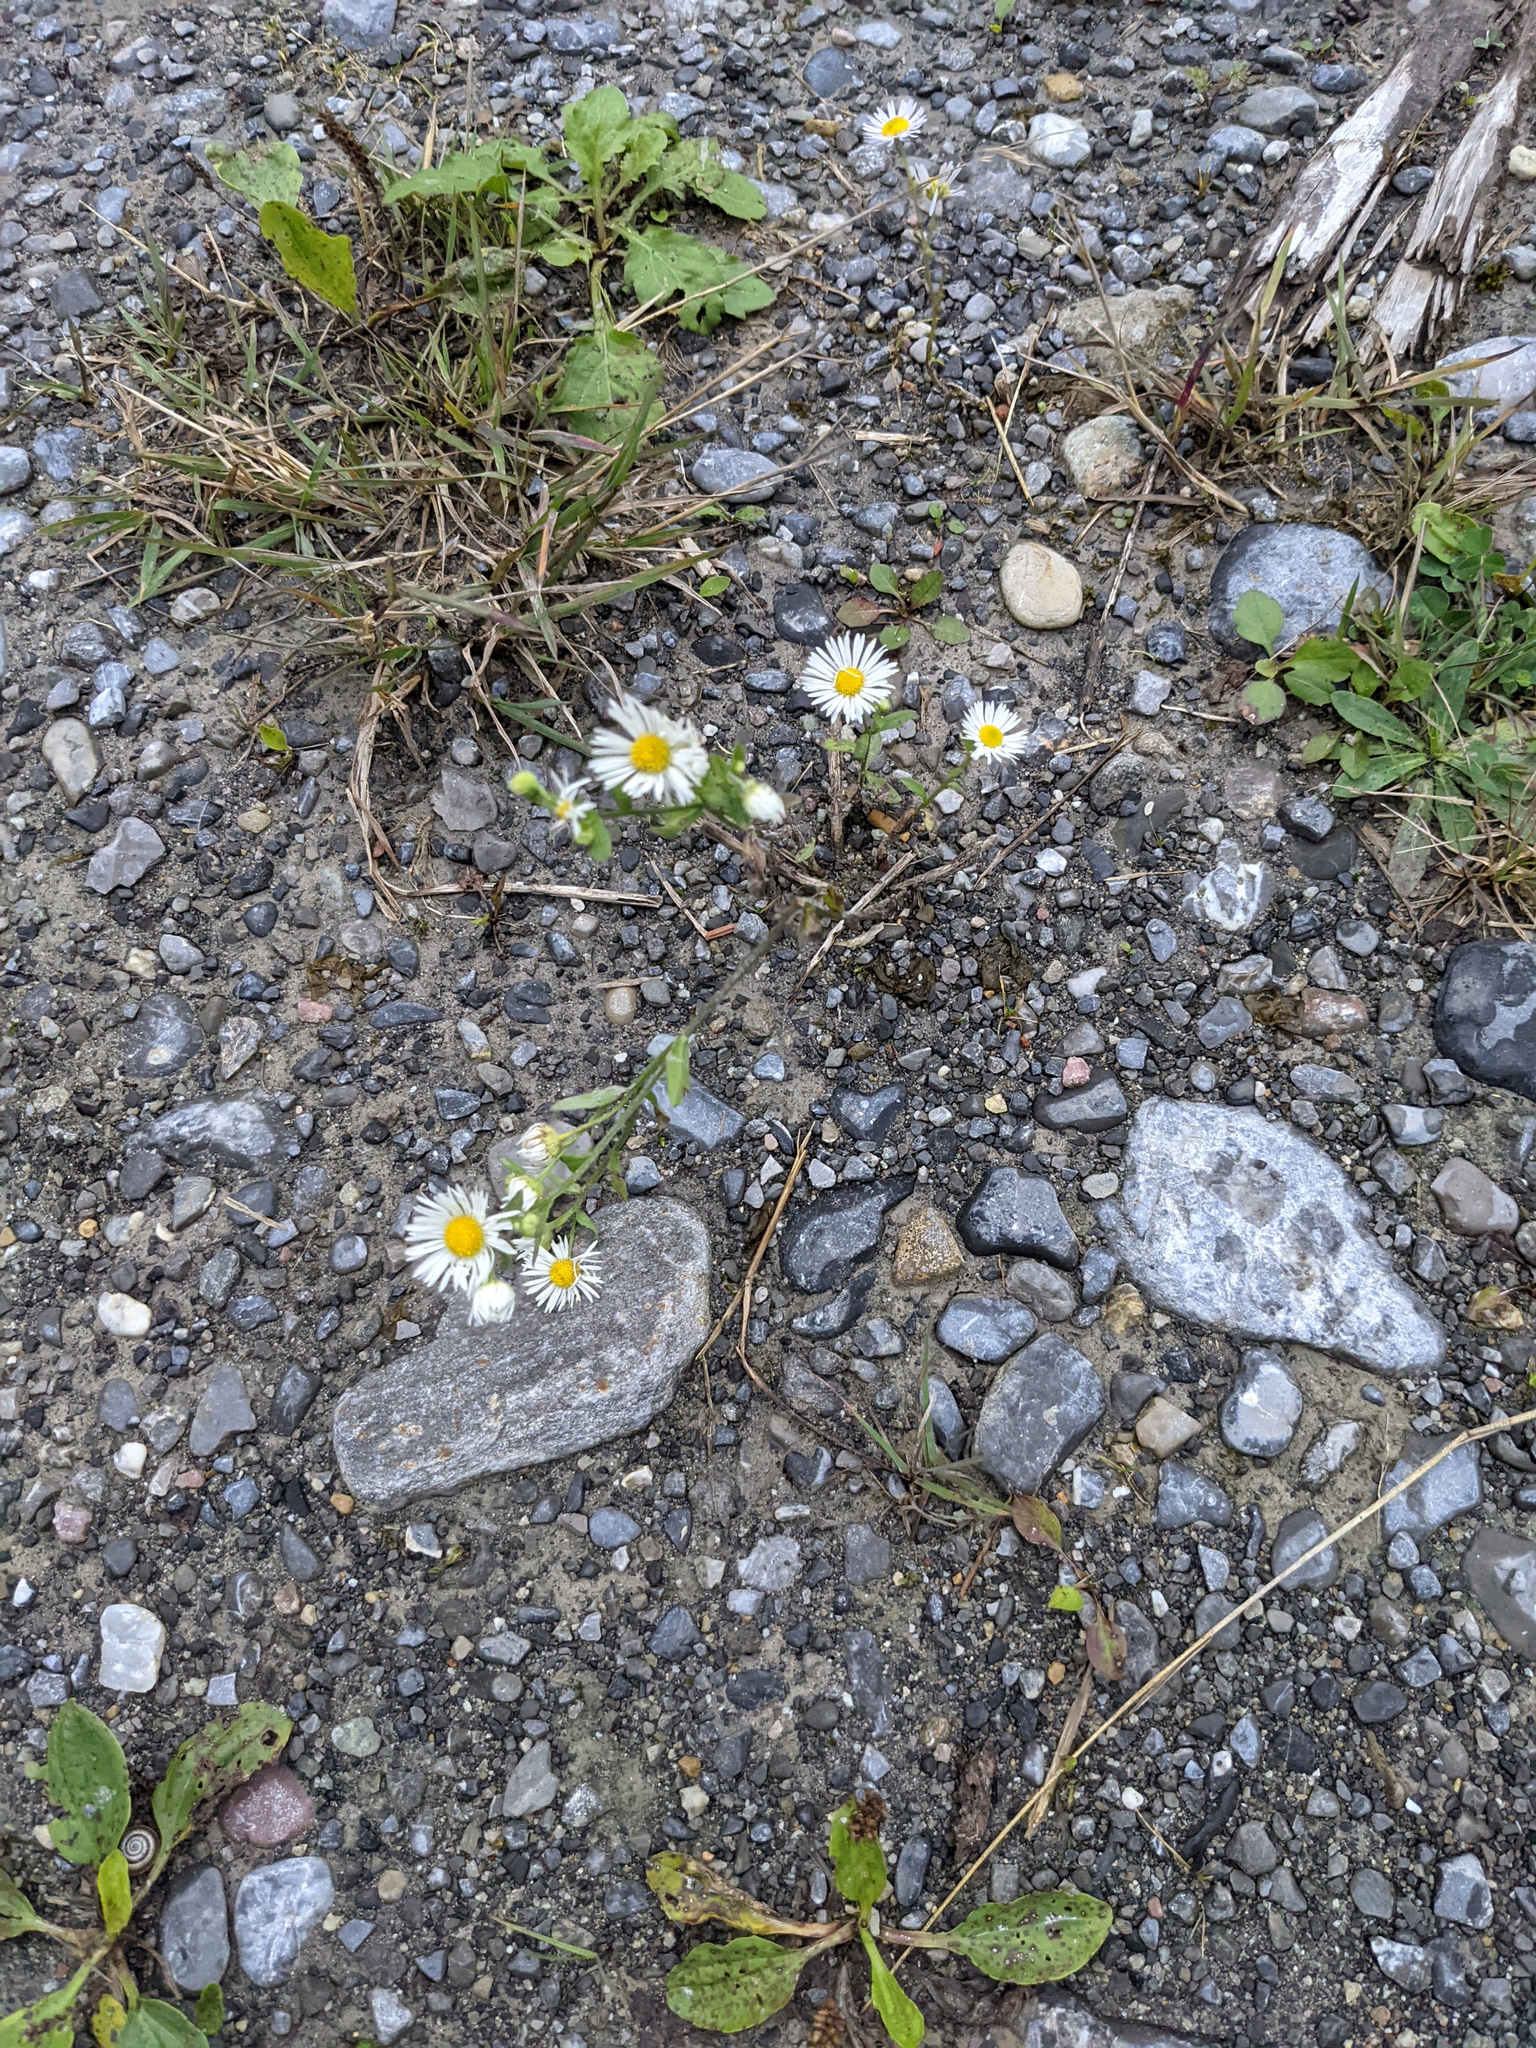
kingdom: Plantae
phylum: Tracheophyta
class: Magnoliopsida
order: Asterales
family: Asteraceae
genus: Erigeron
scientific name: Erigeron annuus
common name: Tall fleabane
